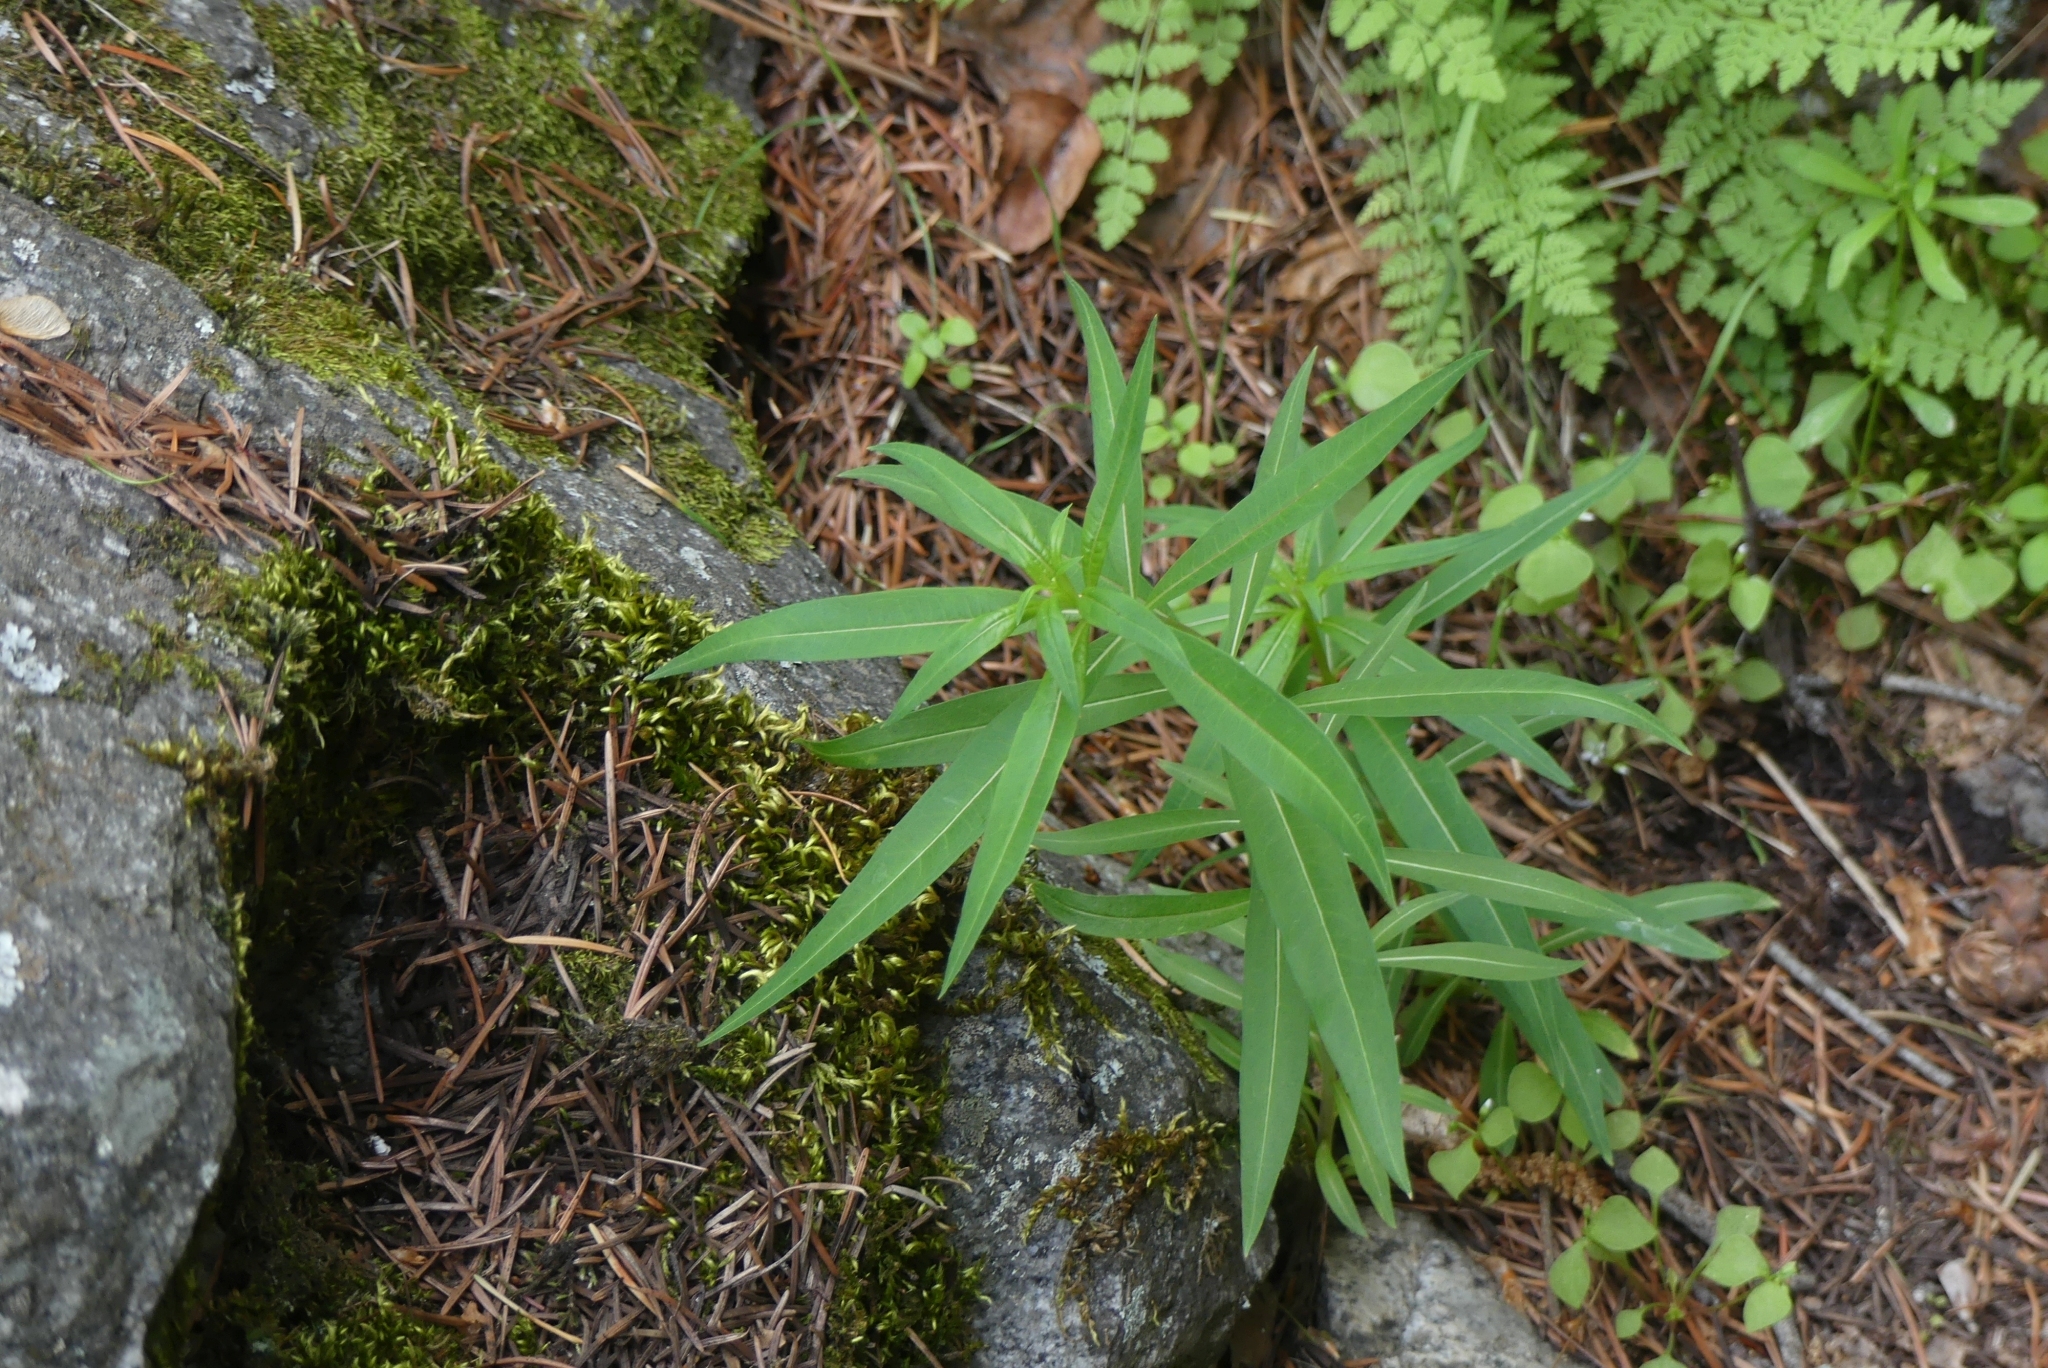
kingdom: Plantae
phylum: Tracheophyta
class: Magnoliopsida
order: Myrtales
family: Onagraceae
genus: Chamaenerion
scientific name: Chamaenerion angustifolium
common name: Fireweed
